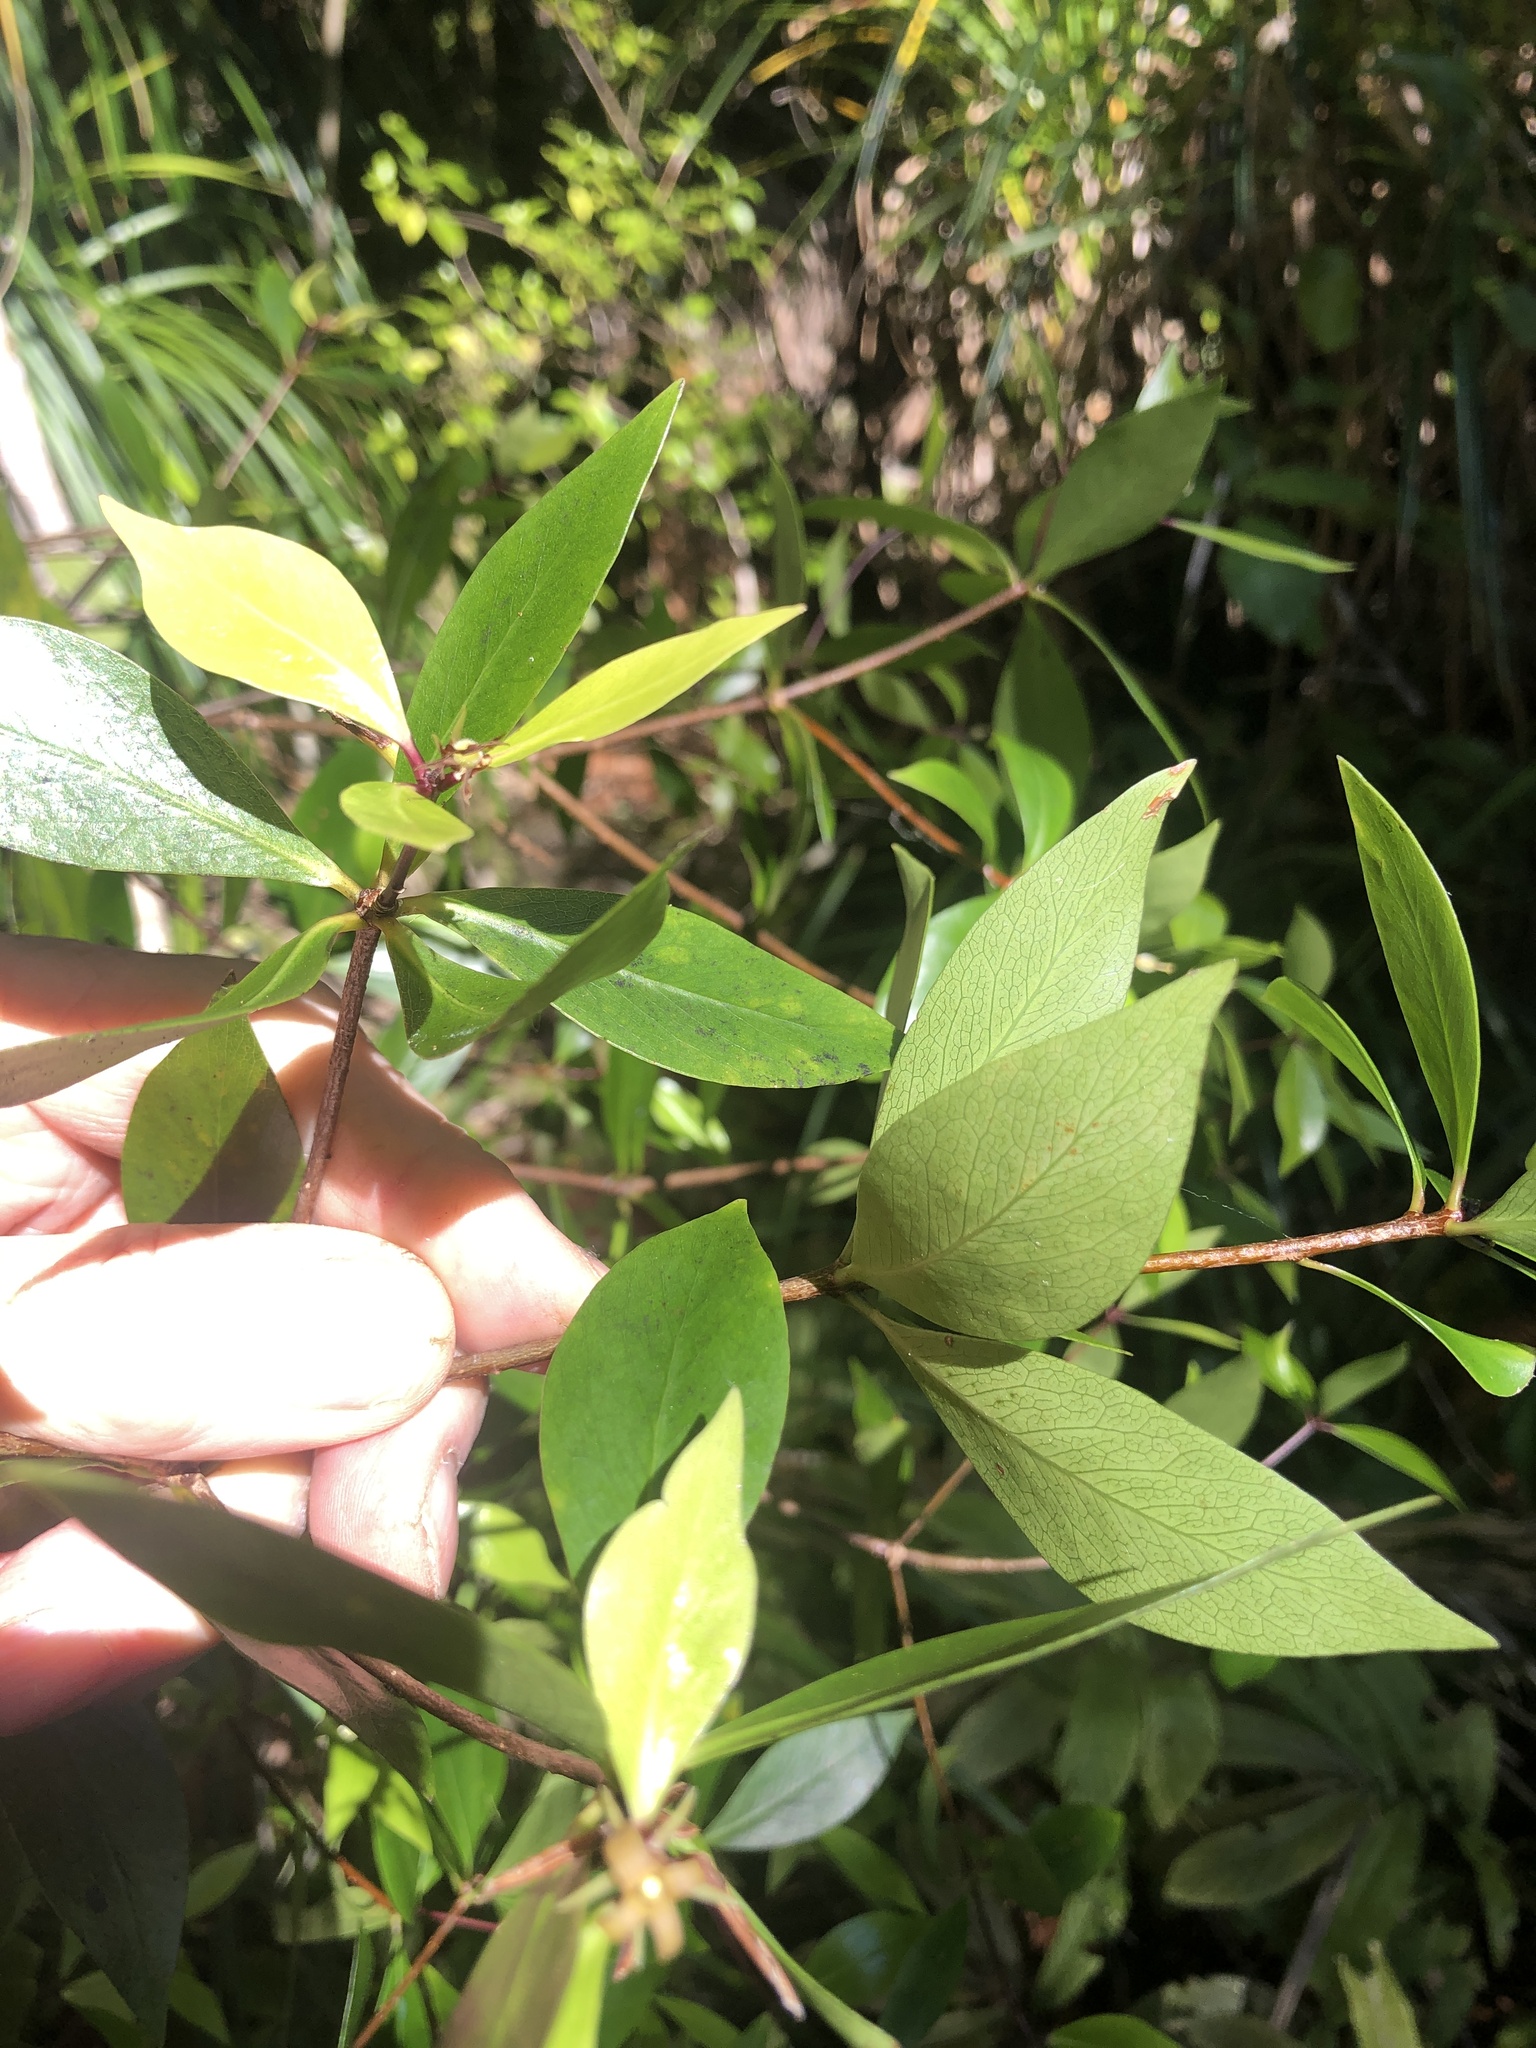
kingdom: Plantae
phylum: Tracheophyta
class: Magnoliopsida
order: Apiales
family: Pittosporaceae
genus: Pittosporum
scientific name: Pittosporum cornifolium
